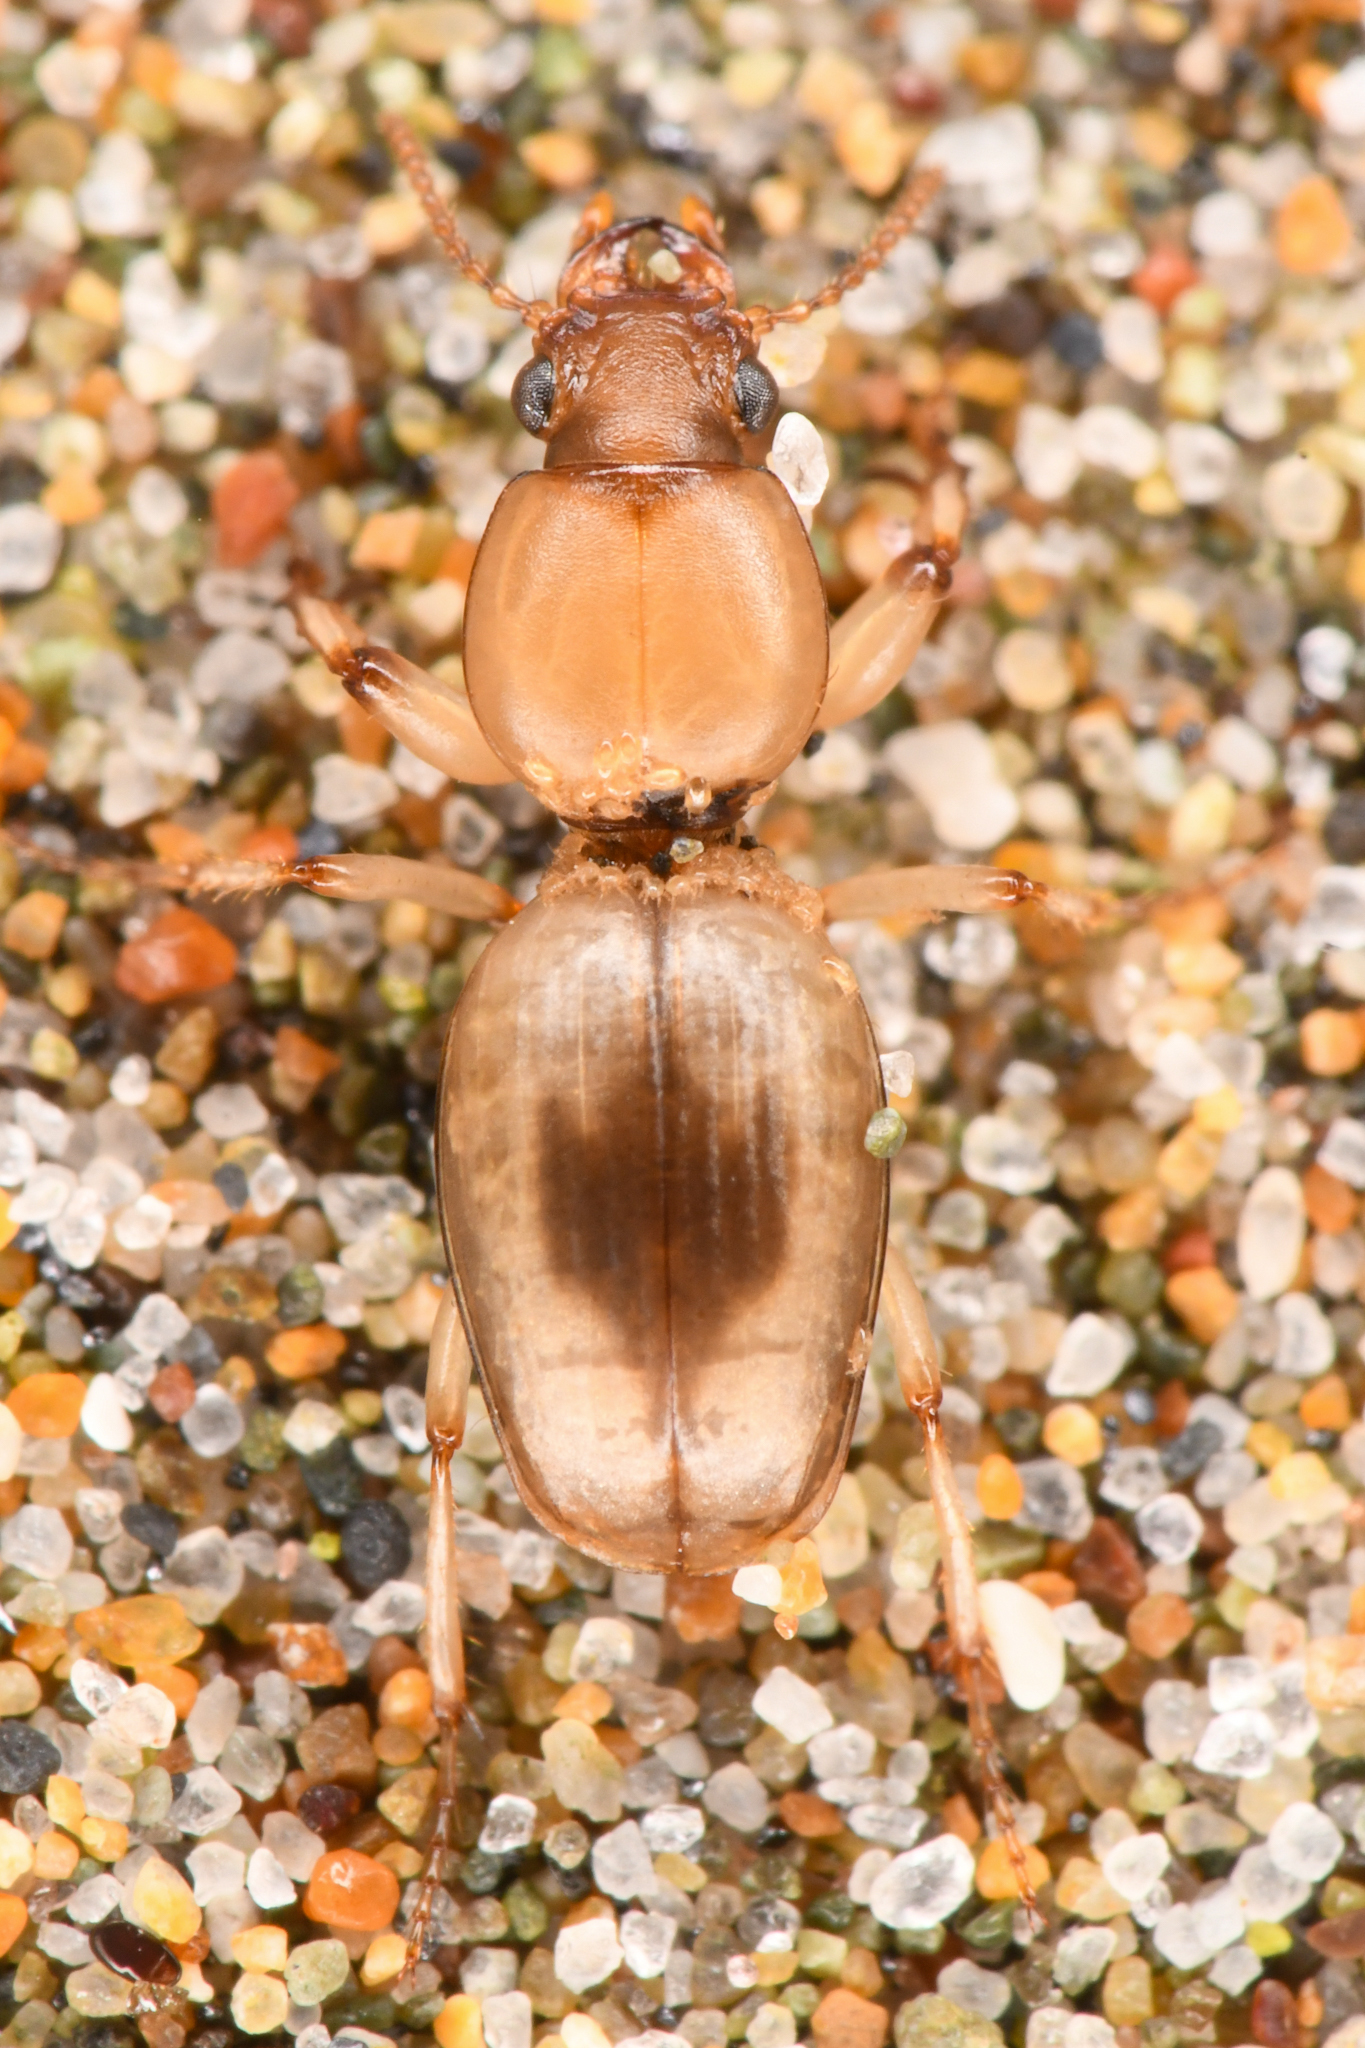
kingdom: Animalia
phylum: Arthropoda
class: Insecta
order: Coleoptera
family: Carabidae
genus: Akephorus
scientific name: Akephorus marinus
